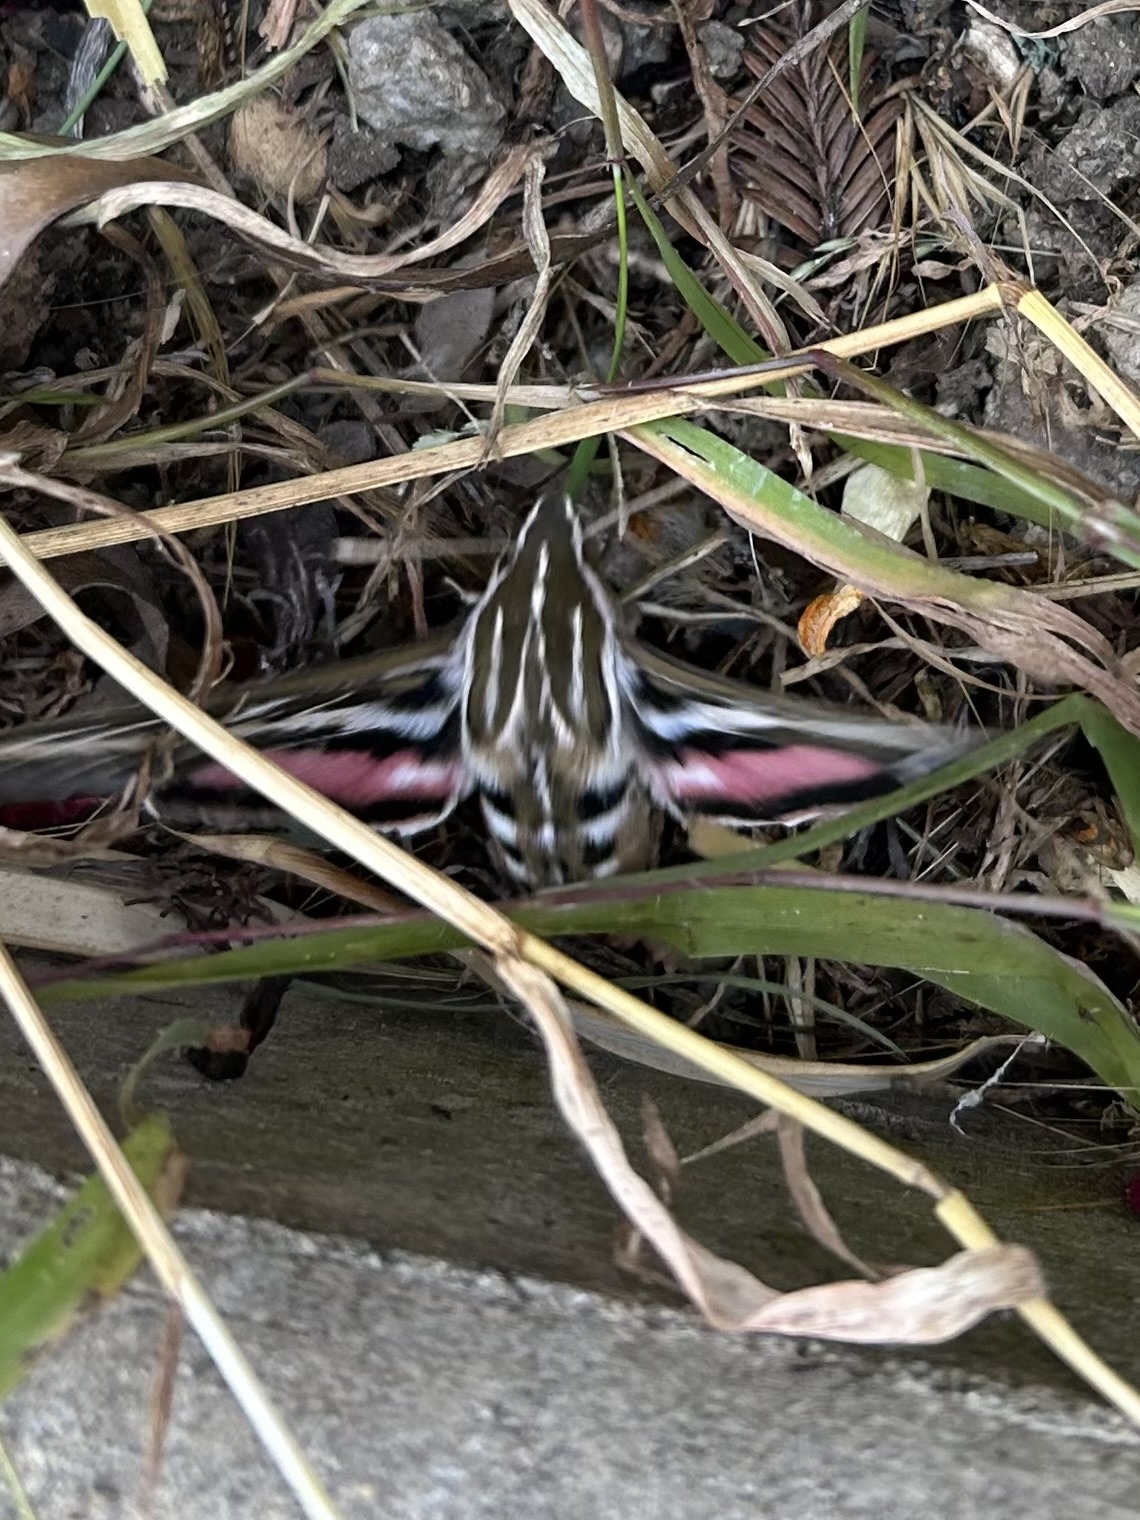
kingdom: Animalia
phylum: Arthropoda
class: Insecta
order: Lepidoptera
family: Sphingidae
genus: Hyles
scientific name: Hyles lineata
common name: White-lined sphinx
